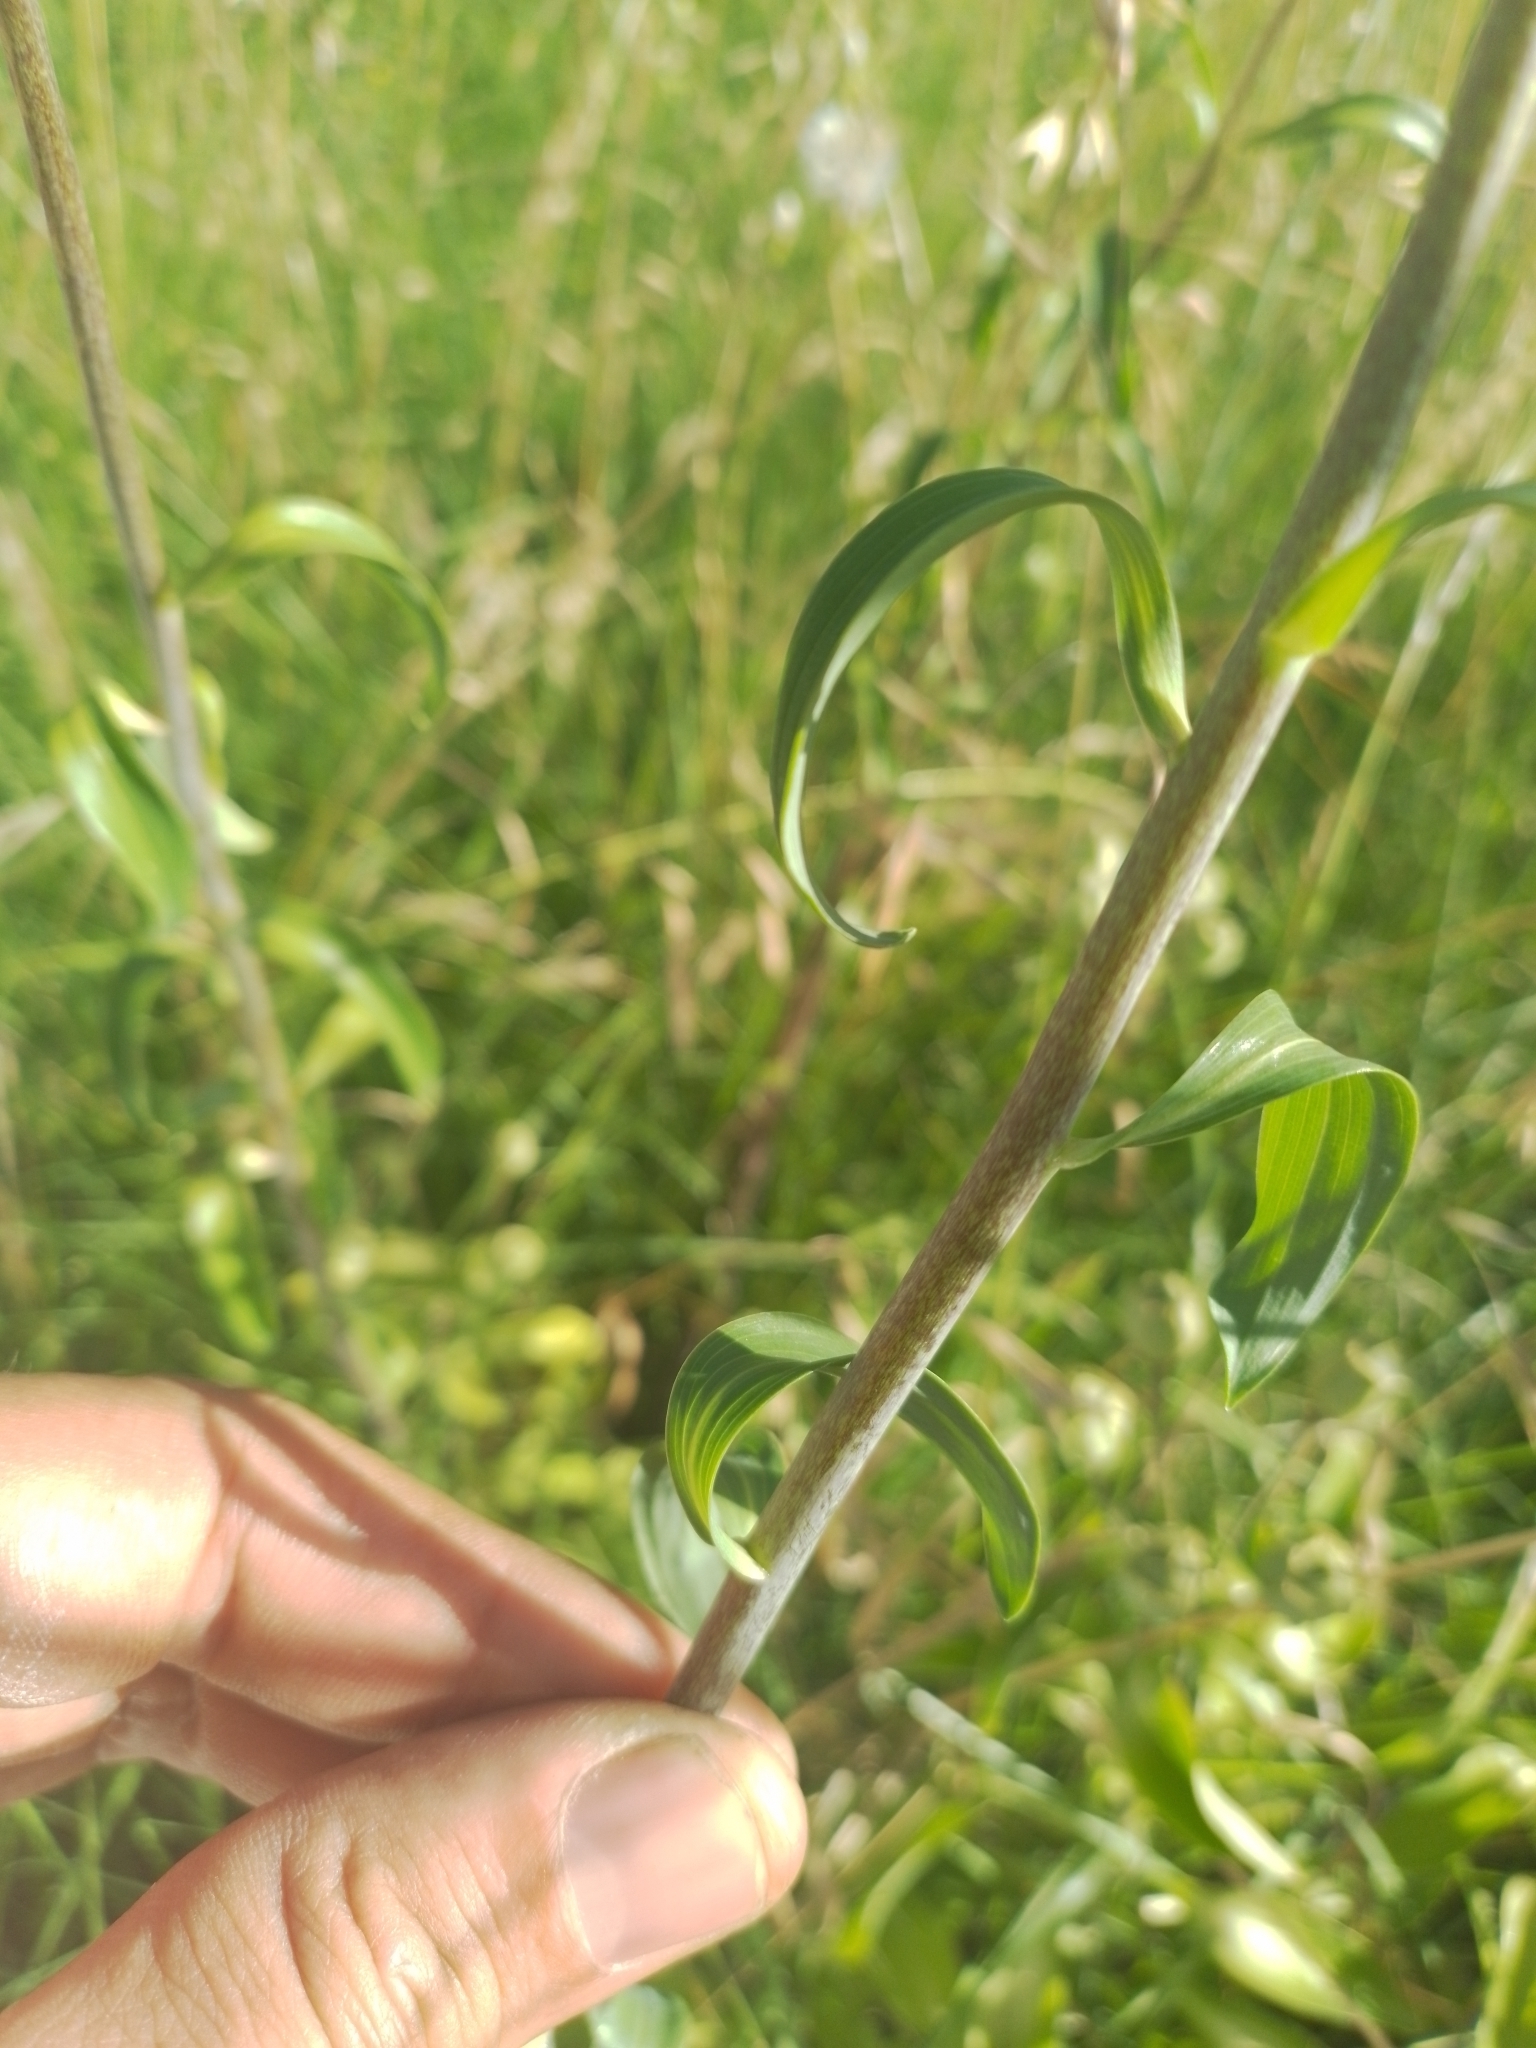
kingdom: Plantae
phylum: Tracheophyta
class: Liliopsida
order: Liliales
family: Alstroemeriaceae
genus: Alstroemeria
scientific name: Alstroemeria psittacina
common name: Peruvian-lily
